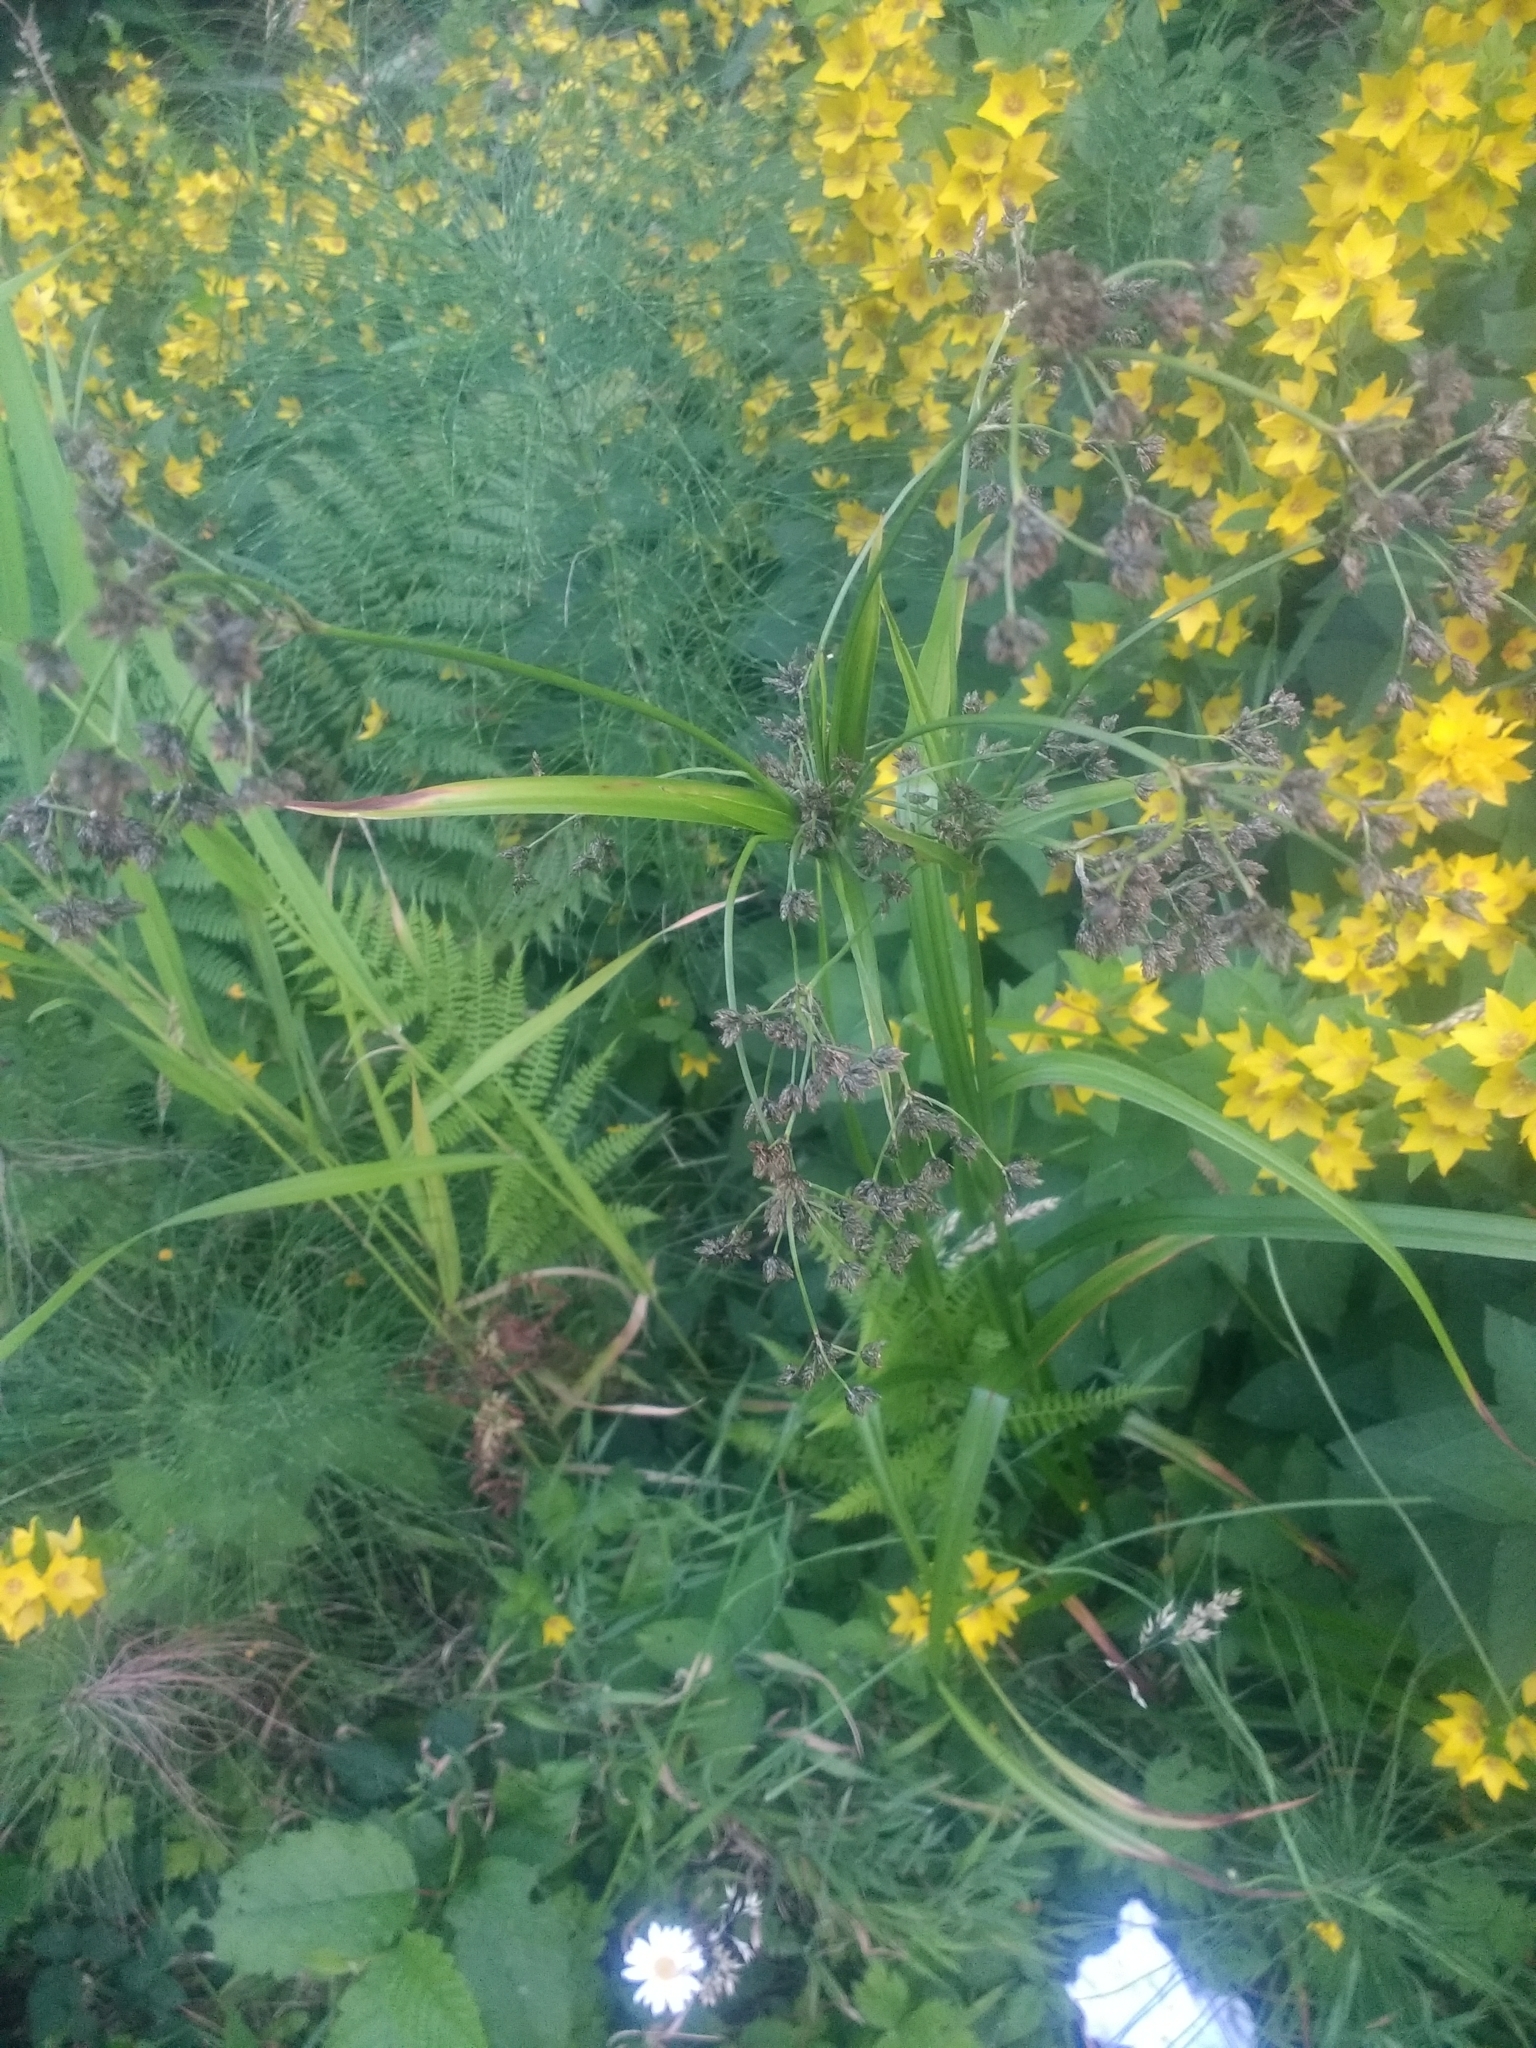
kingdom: Plantae
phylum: Tracheophyta
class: Liliopsida
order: Poales
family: Cyperaceae
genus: Scirpus
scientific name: Scirpus microcarpus
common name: Panicled bulrush
